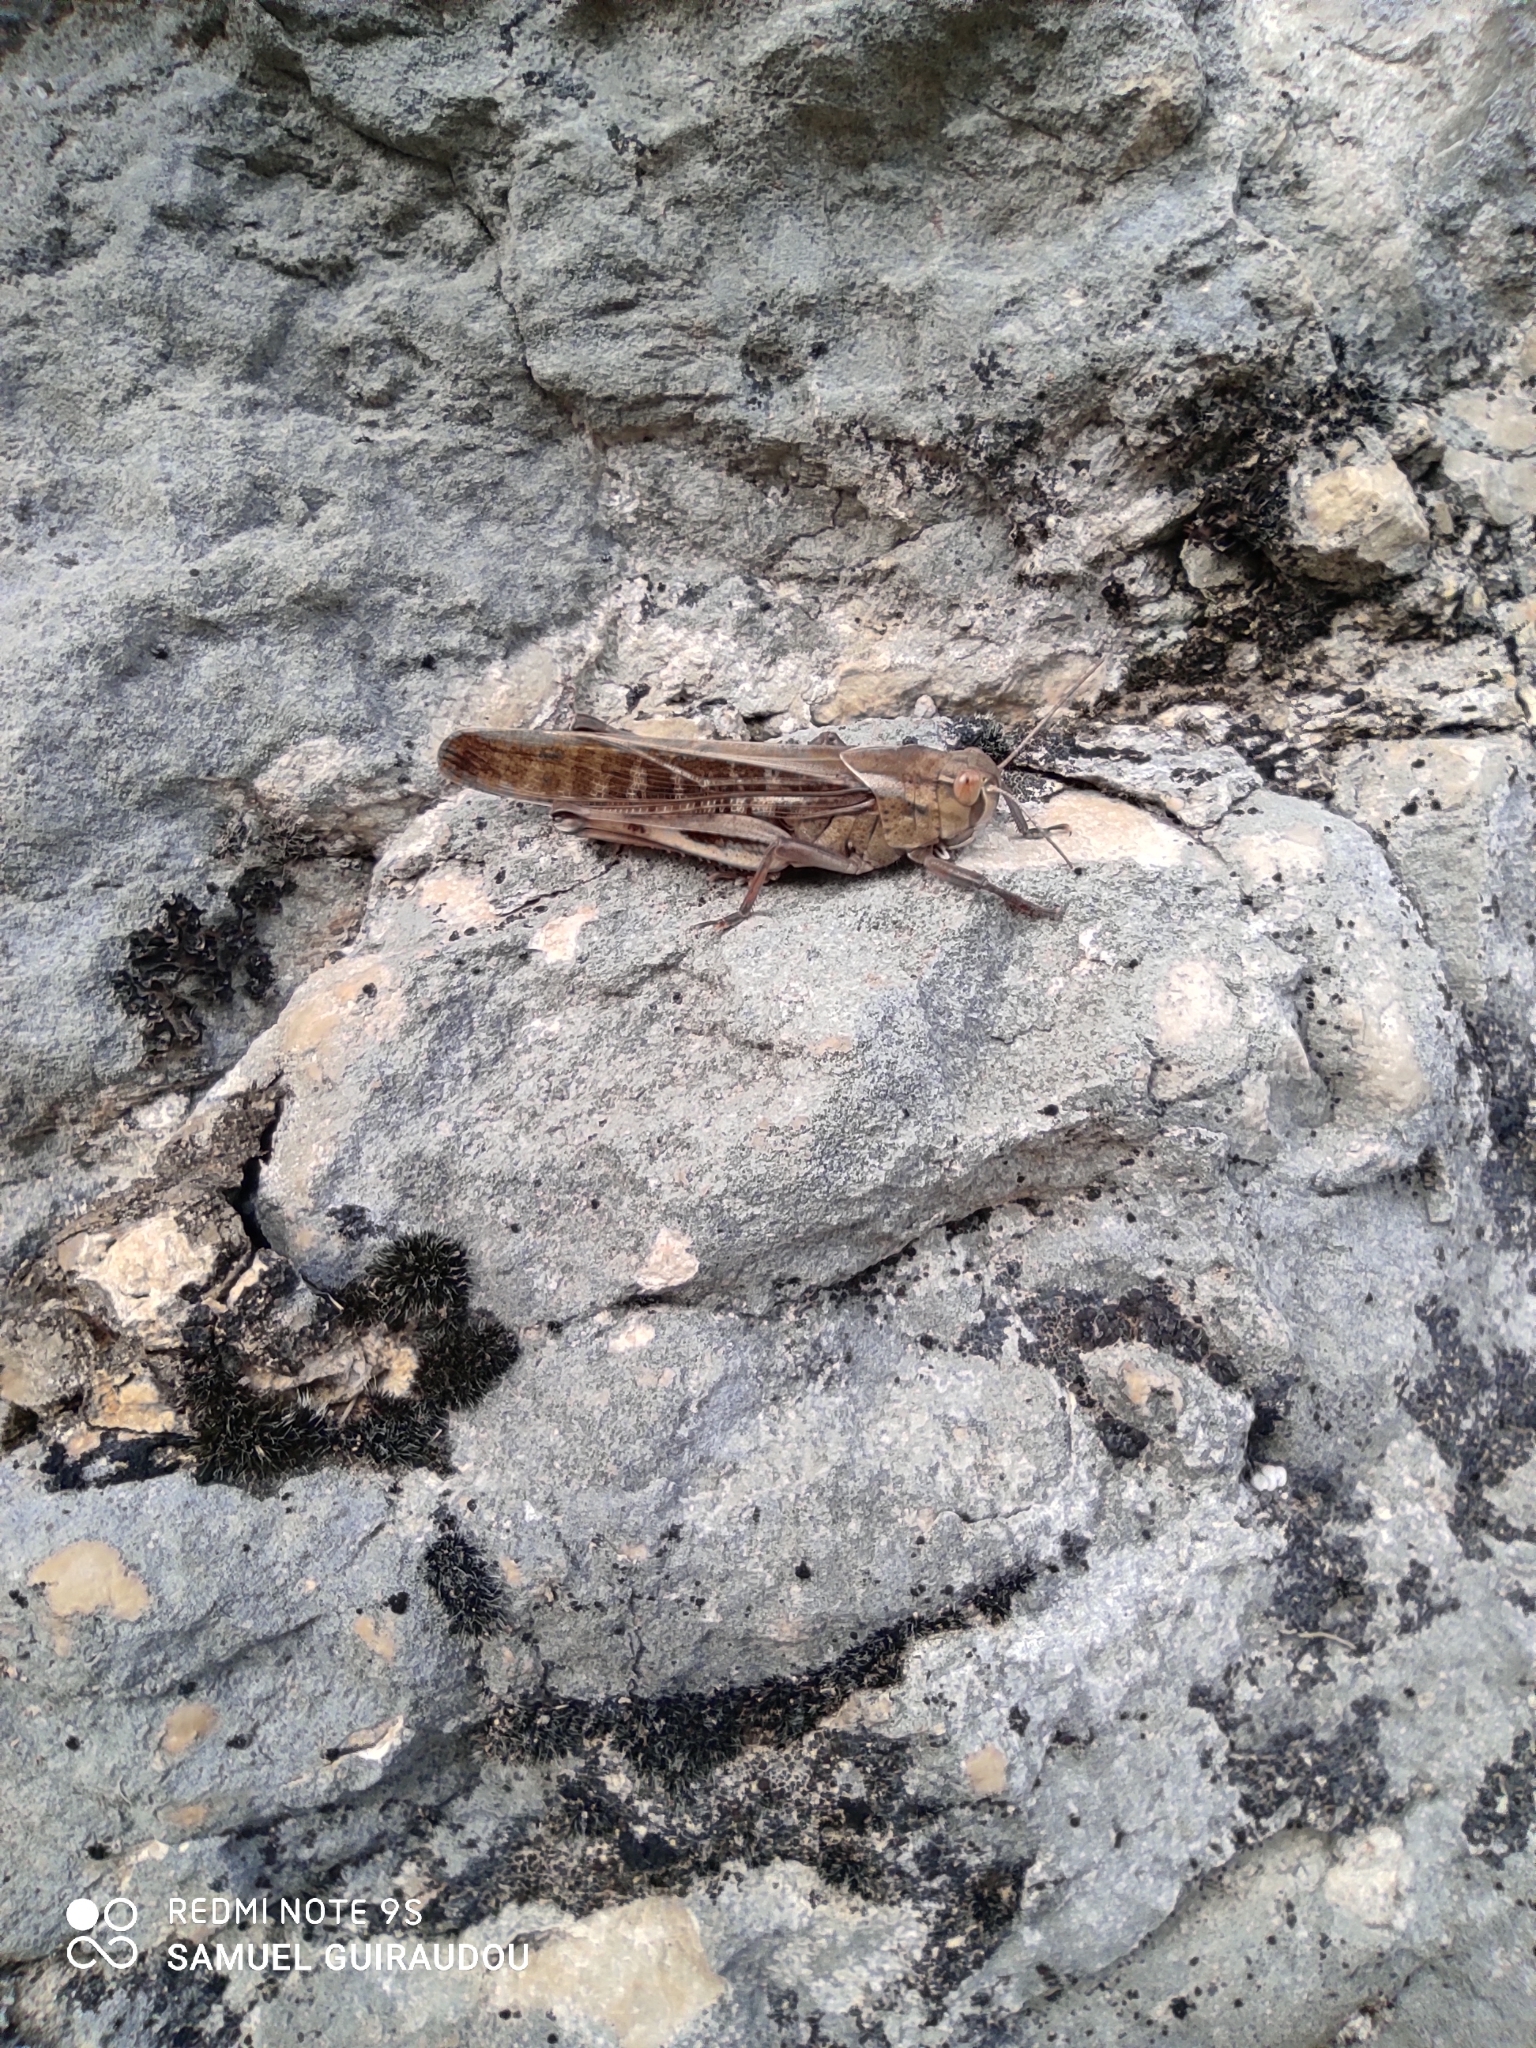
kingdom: Animalia
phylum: Arthropoda
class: Insecta
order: Orthoptera
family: Acrididae
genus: Locusta
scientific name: Locusta migratoria
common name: Migratory locust
